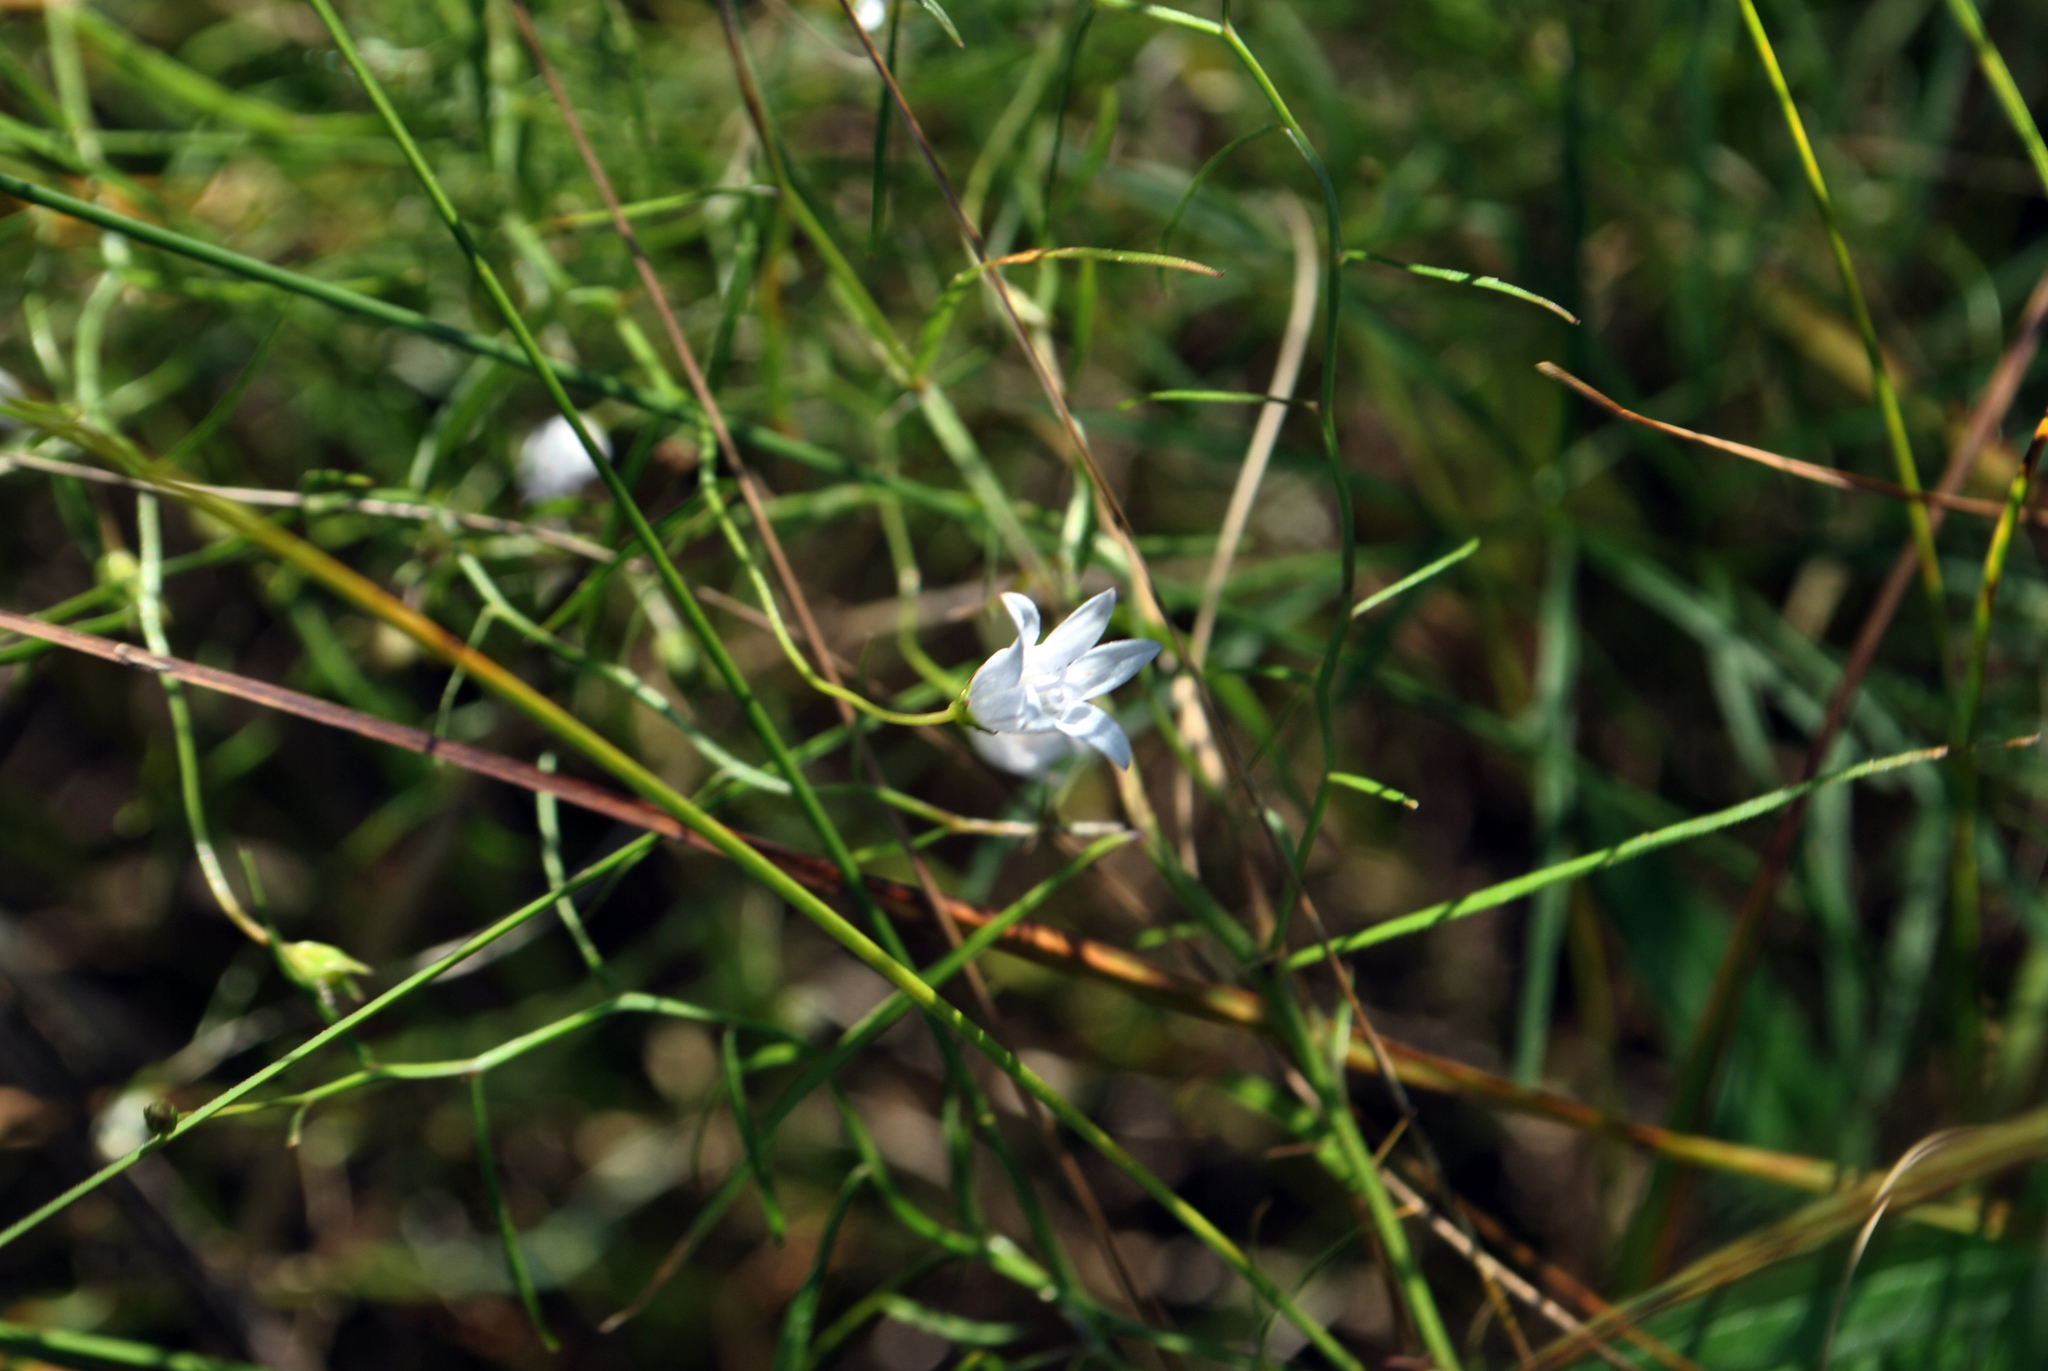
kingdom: Plantae
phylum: Tracheophyta
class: Magnoliopsida
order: Asterales
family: Campanulaceae
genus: Palustricodon
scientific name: Palustricodon aparinoides
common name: Bedstraw bellflower
